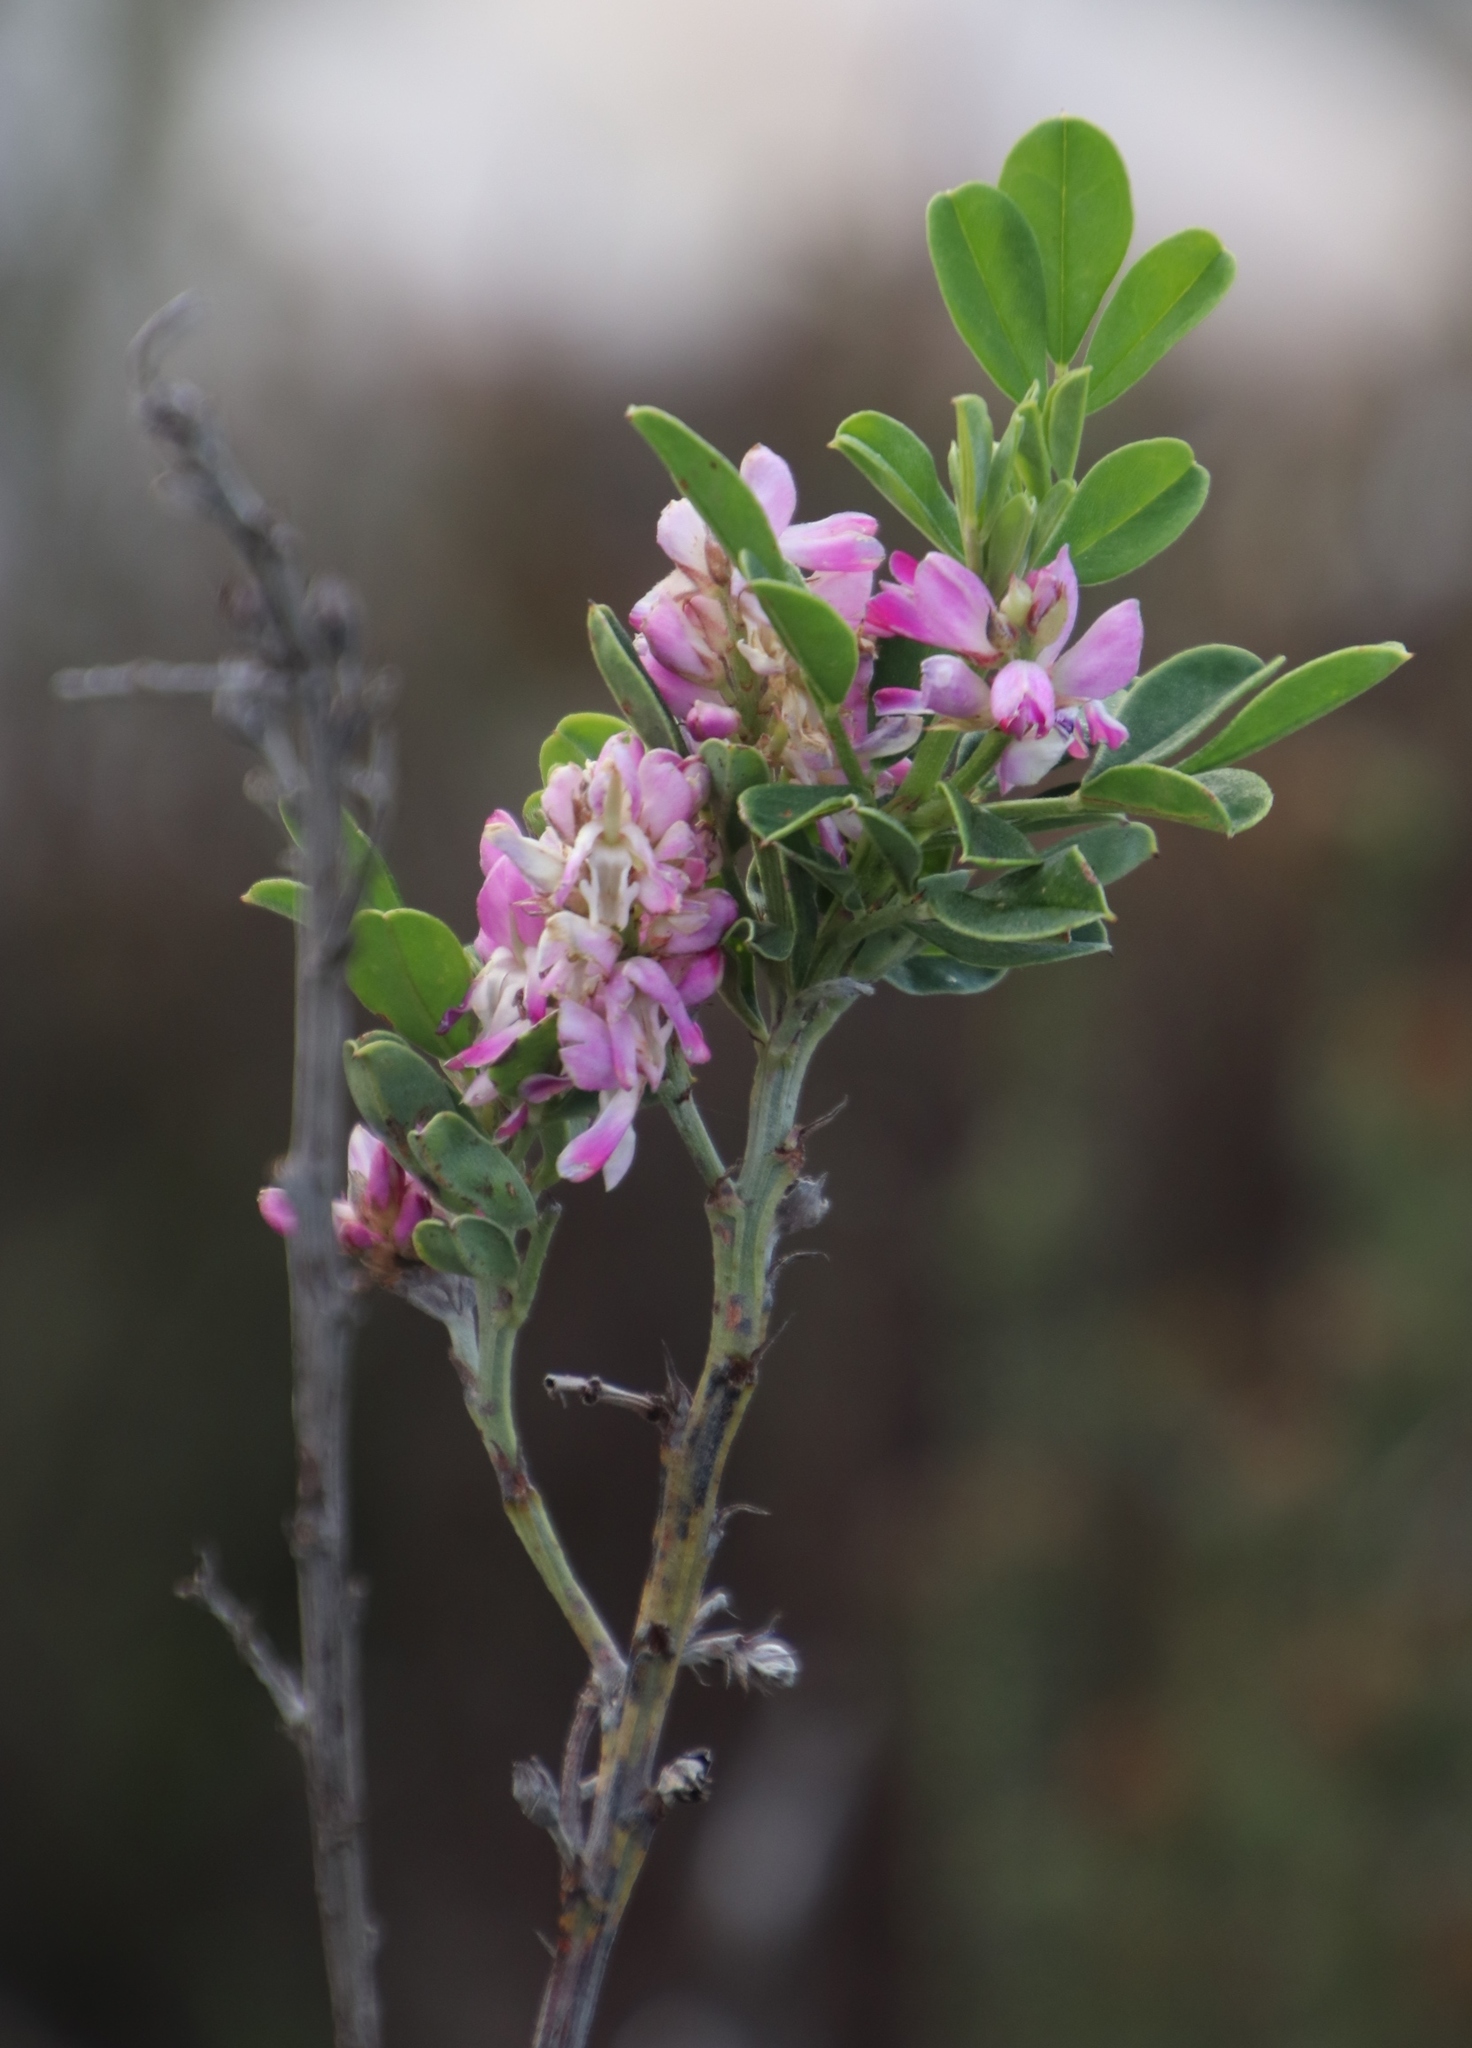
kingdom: Plantae
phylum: Tracheophyta
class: Magnoliopsida
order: Fabales
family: Fabaceae
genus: Indigofera
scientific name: Indigofera cytisoides
